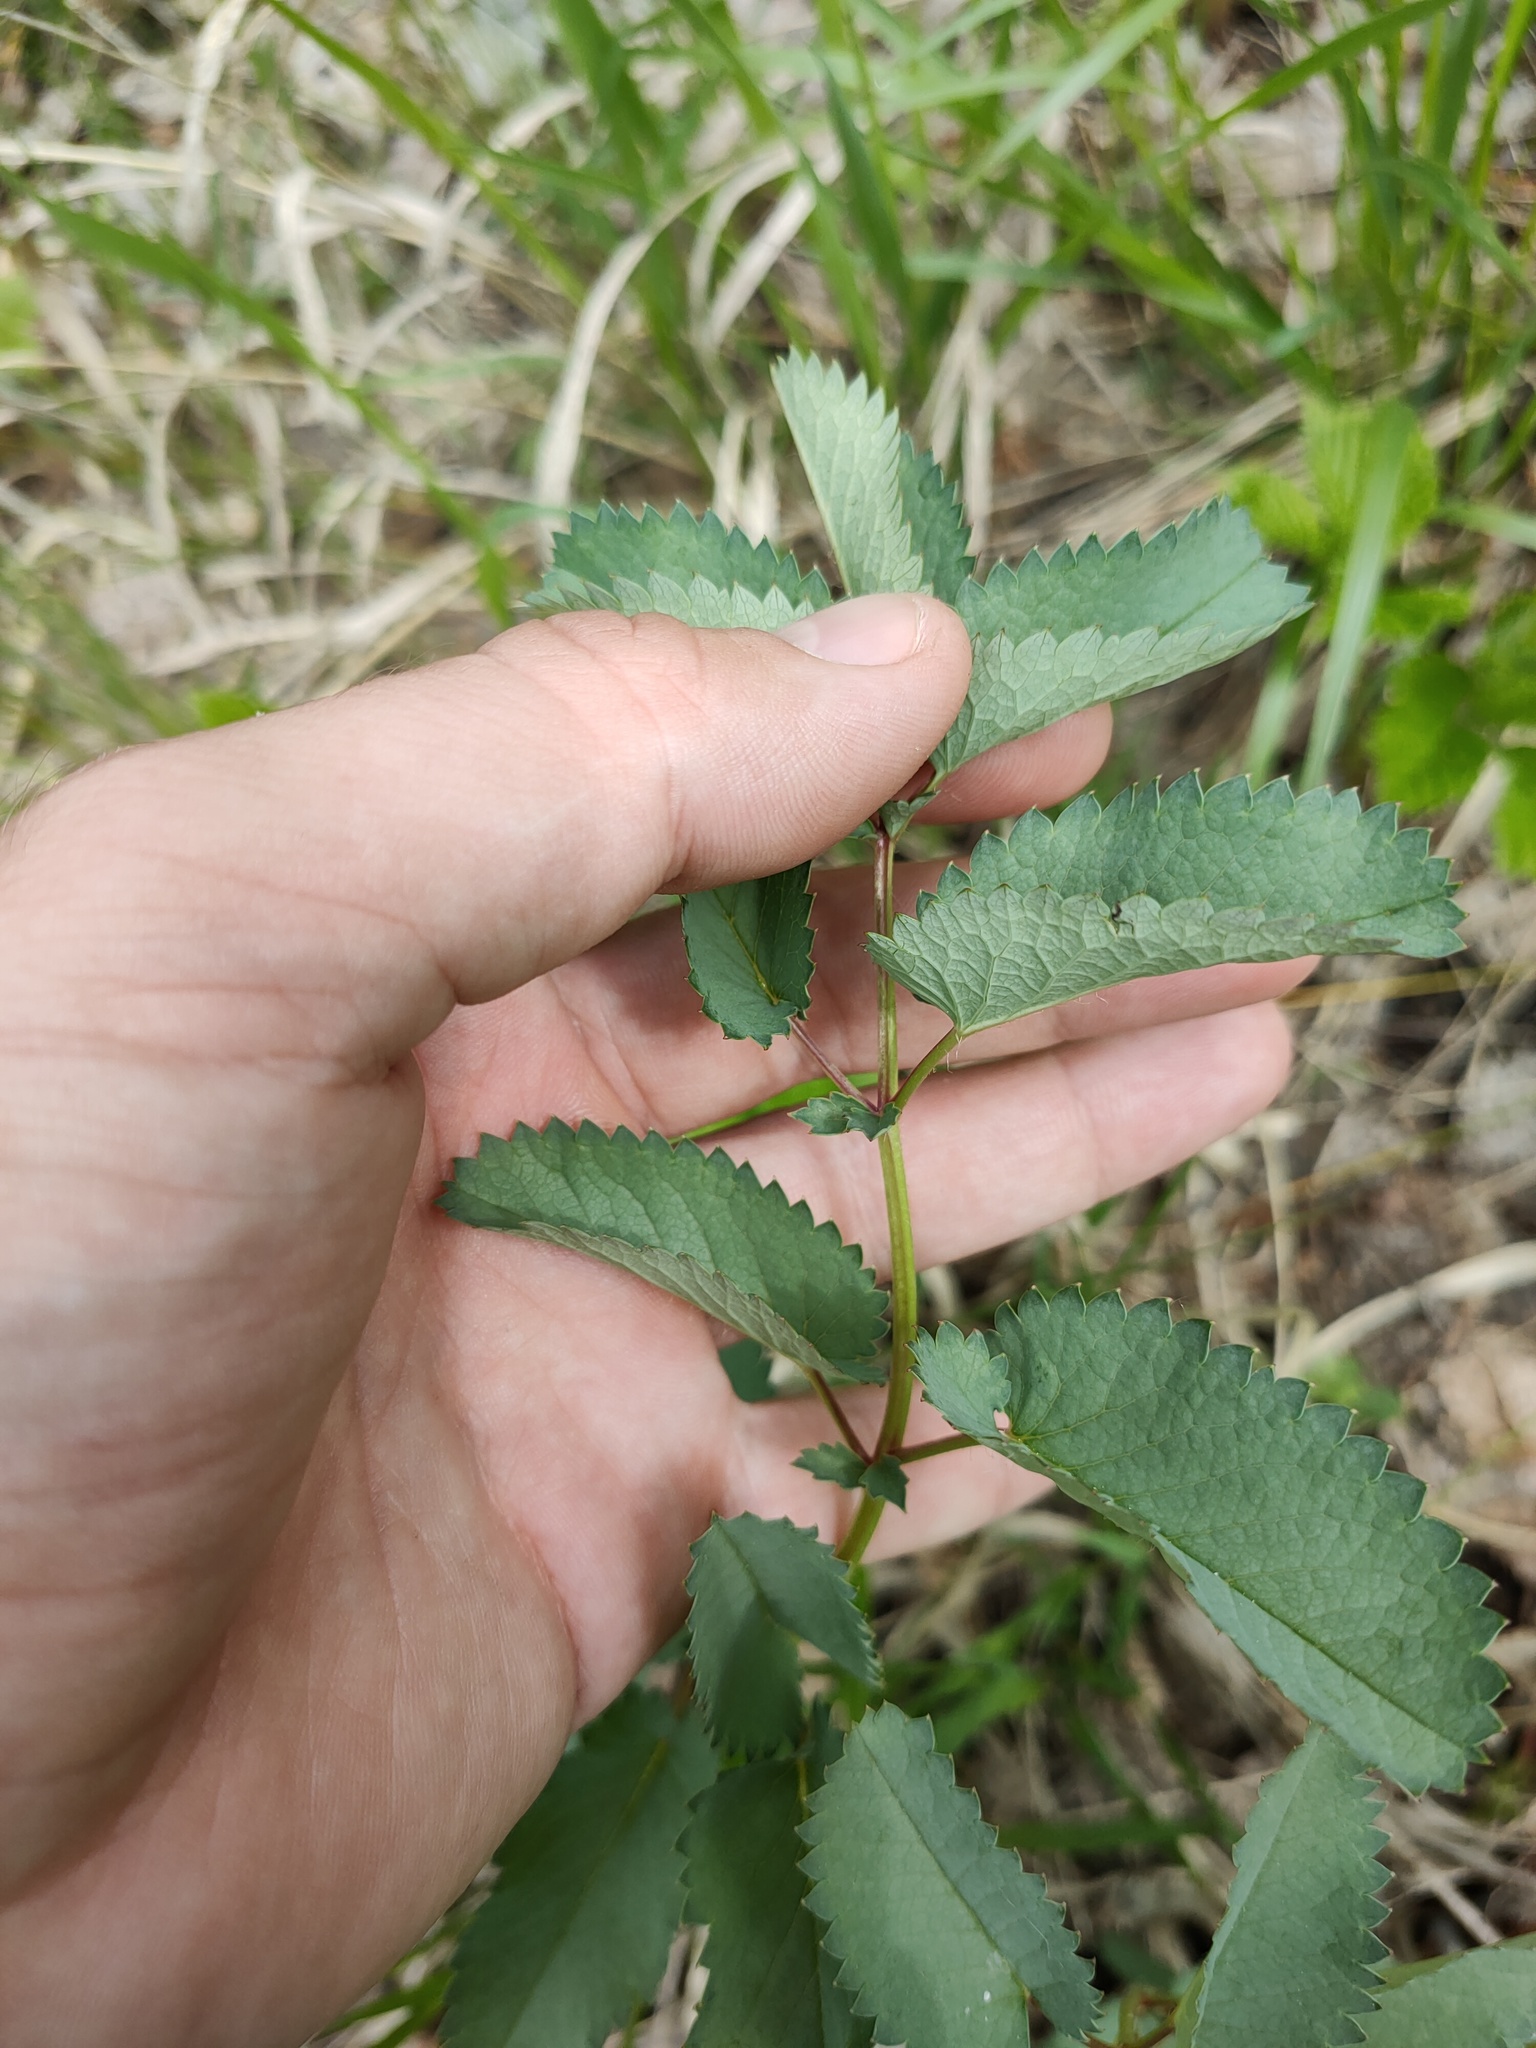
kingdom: Plantae
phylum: Tracheophyta
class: Magnoliopsida
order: Rosales
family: Rosaceae
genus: Sanguisorba
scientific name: Sanguisorba officinalis
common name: Great burnet
